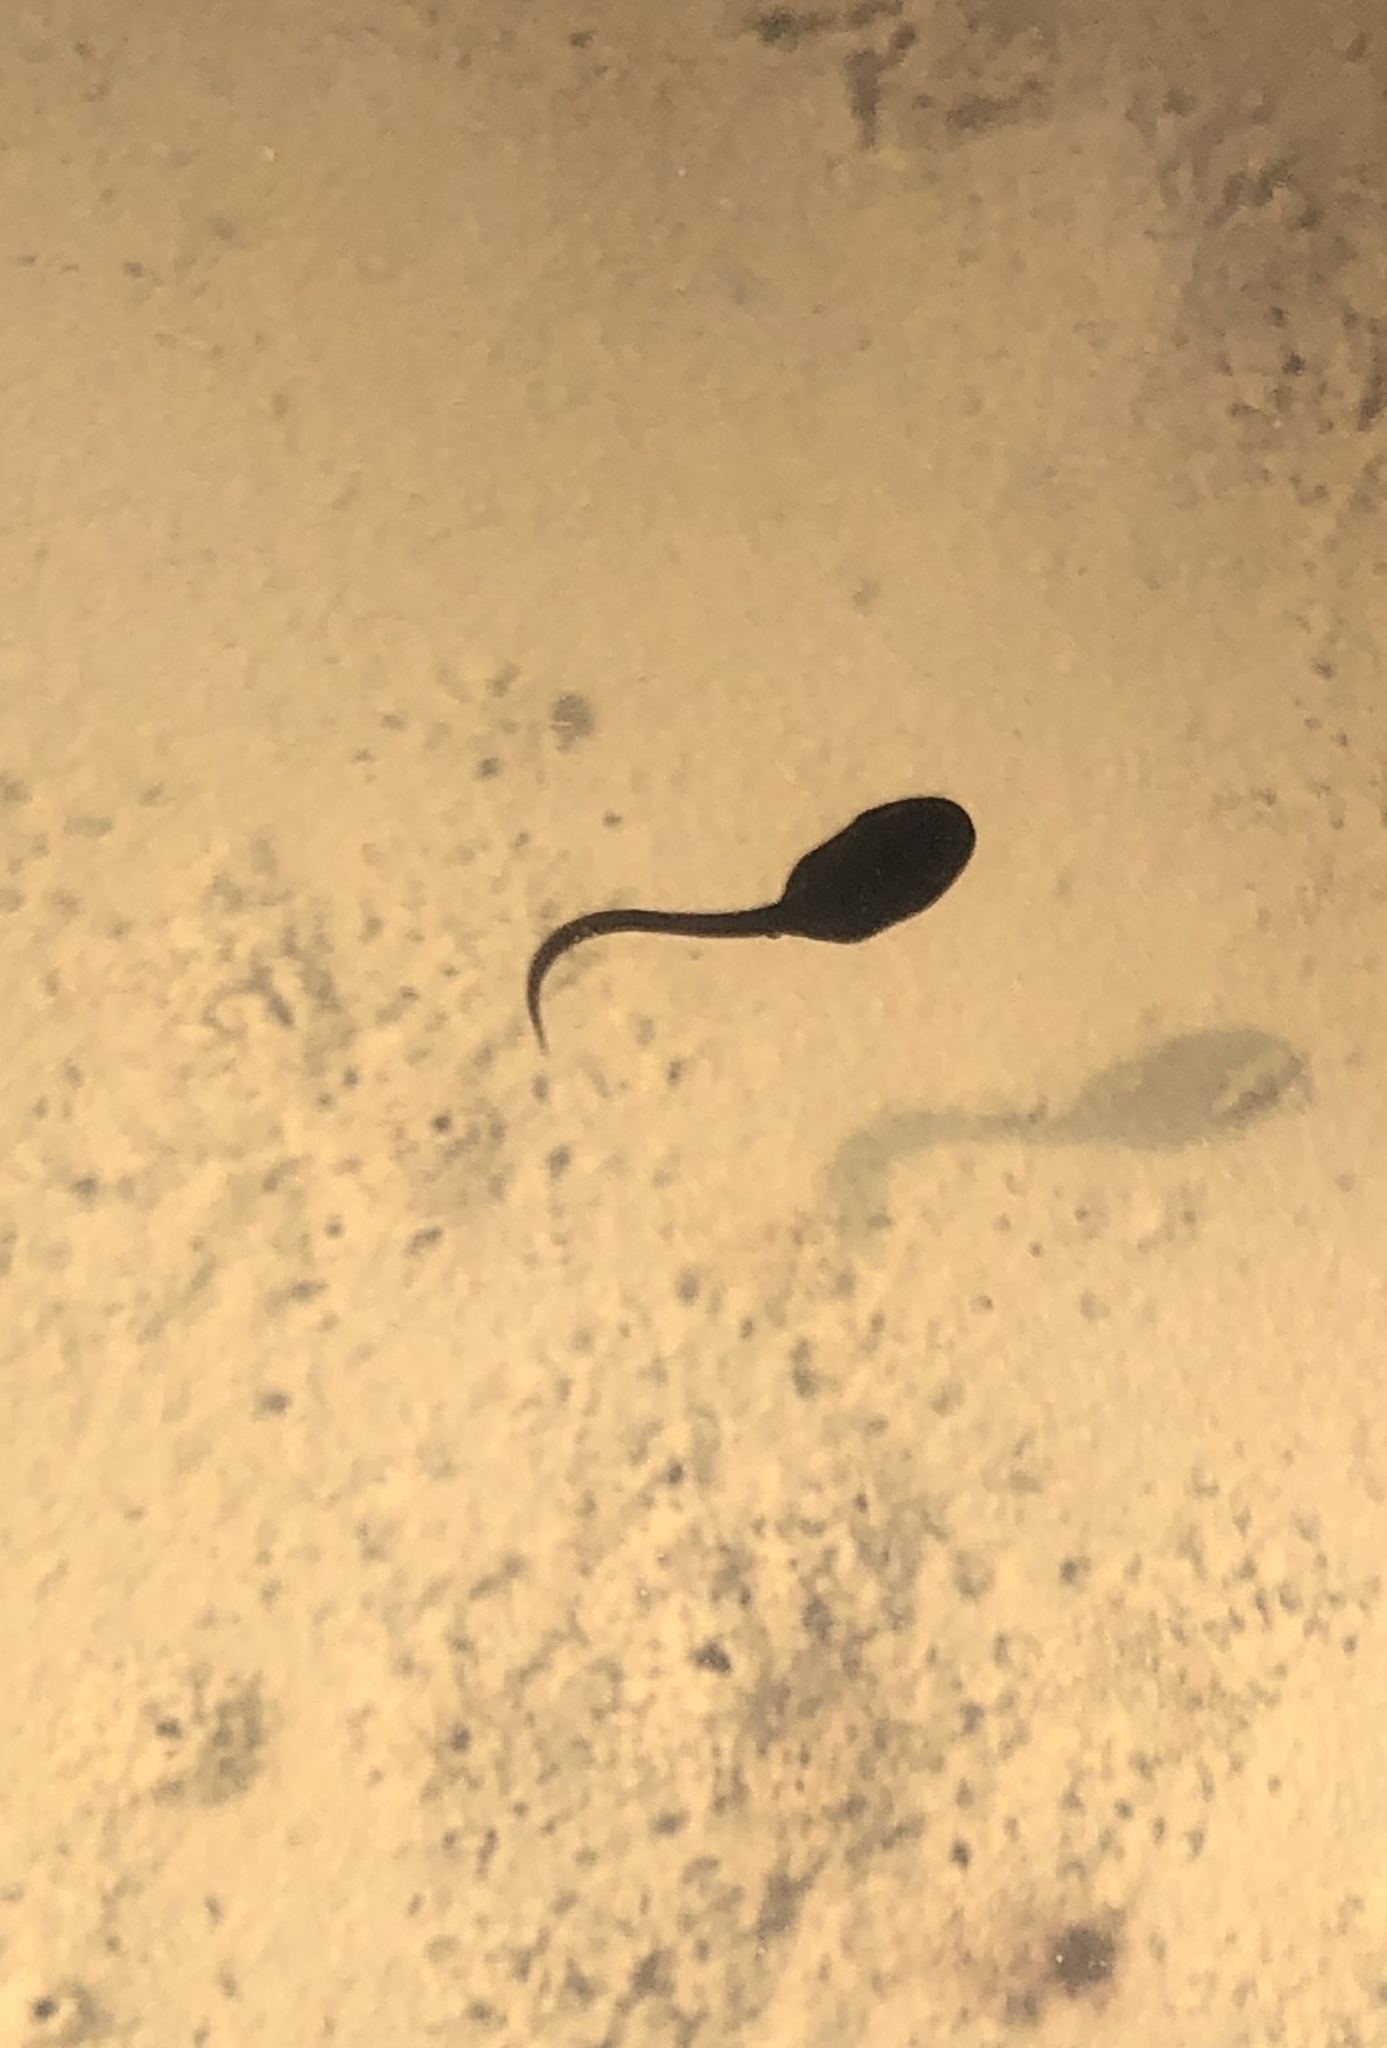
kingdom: Animalia
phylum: Chordata
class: Amphibia
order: Anura
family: Bufonidae
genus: Epidalea
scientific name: Epidalea calamita
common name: Natterjack toad
